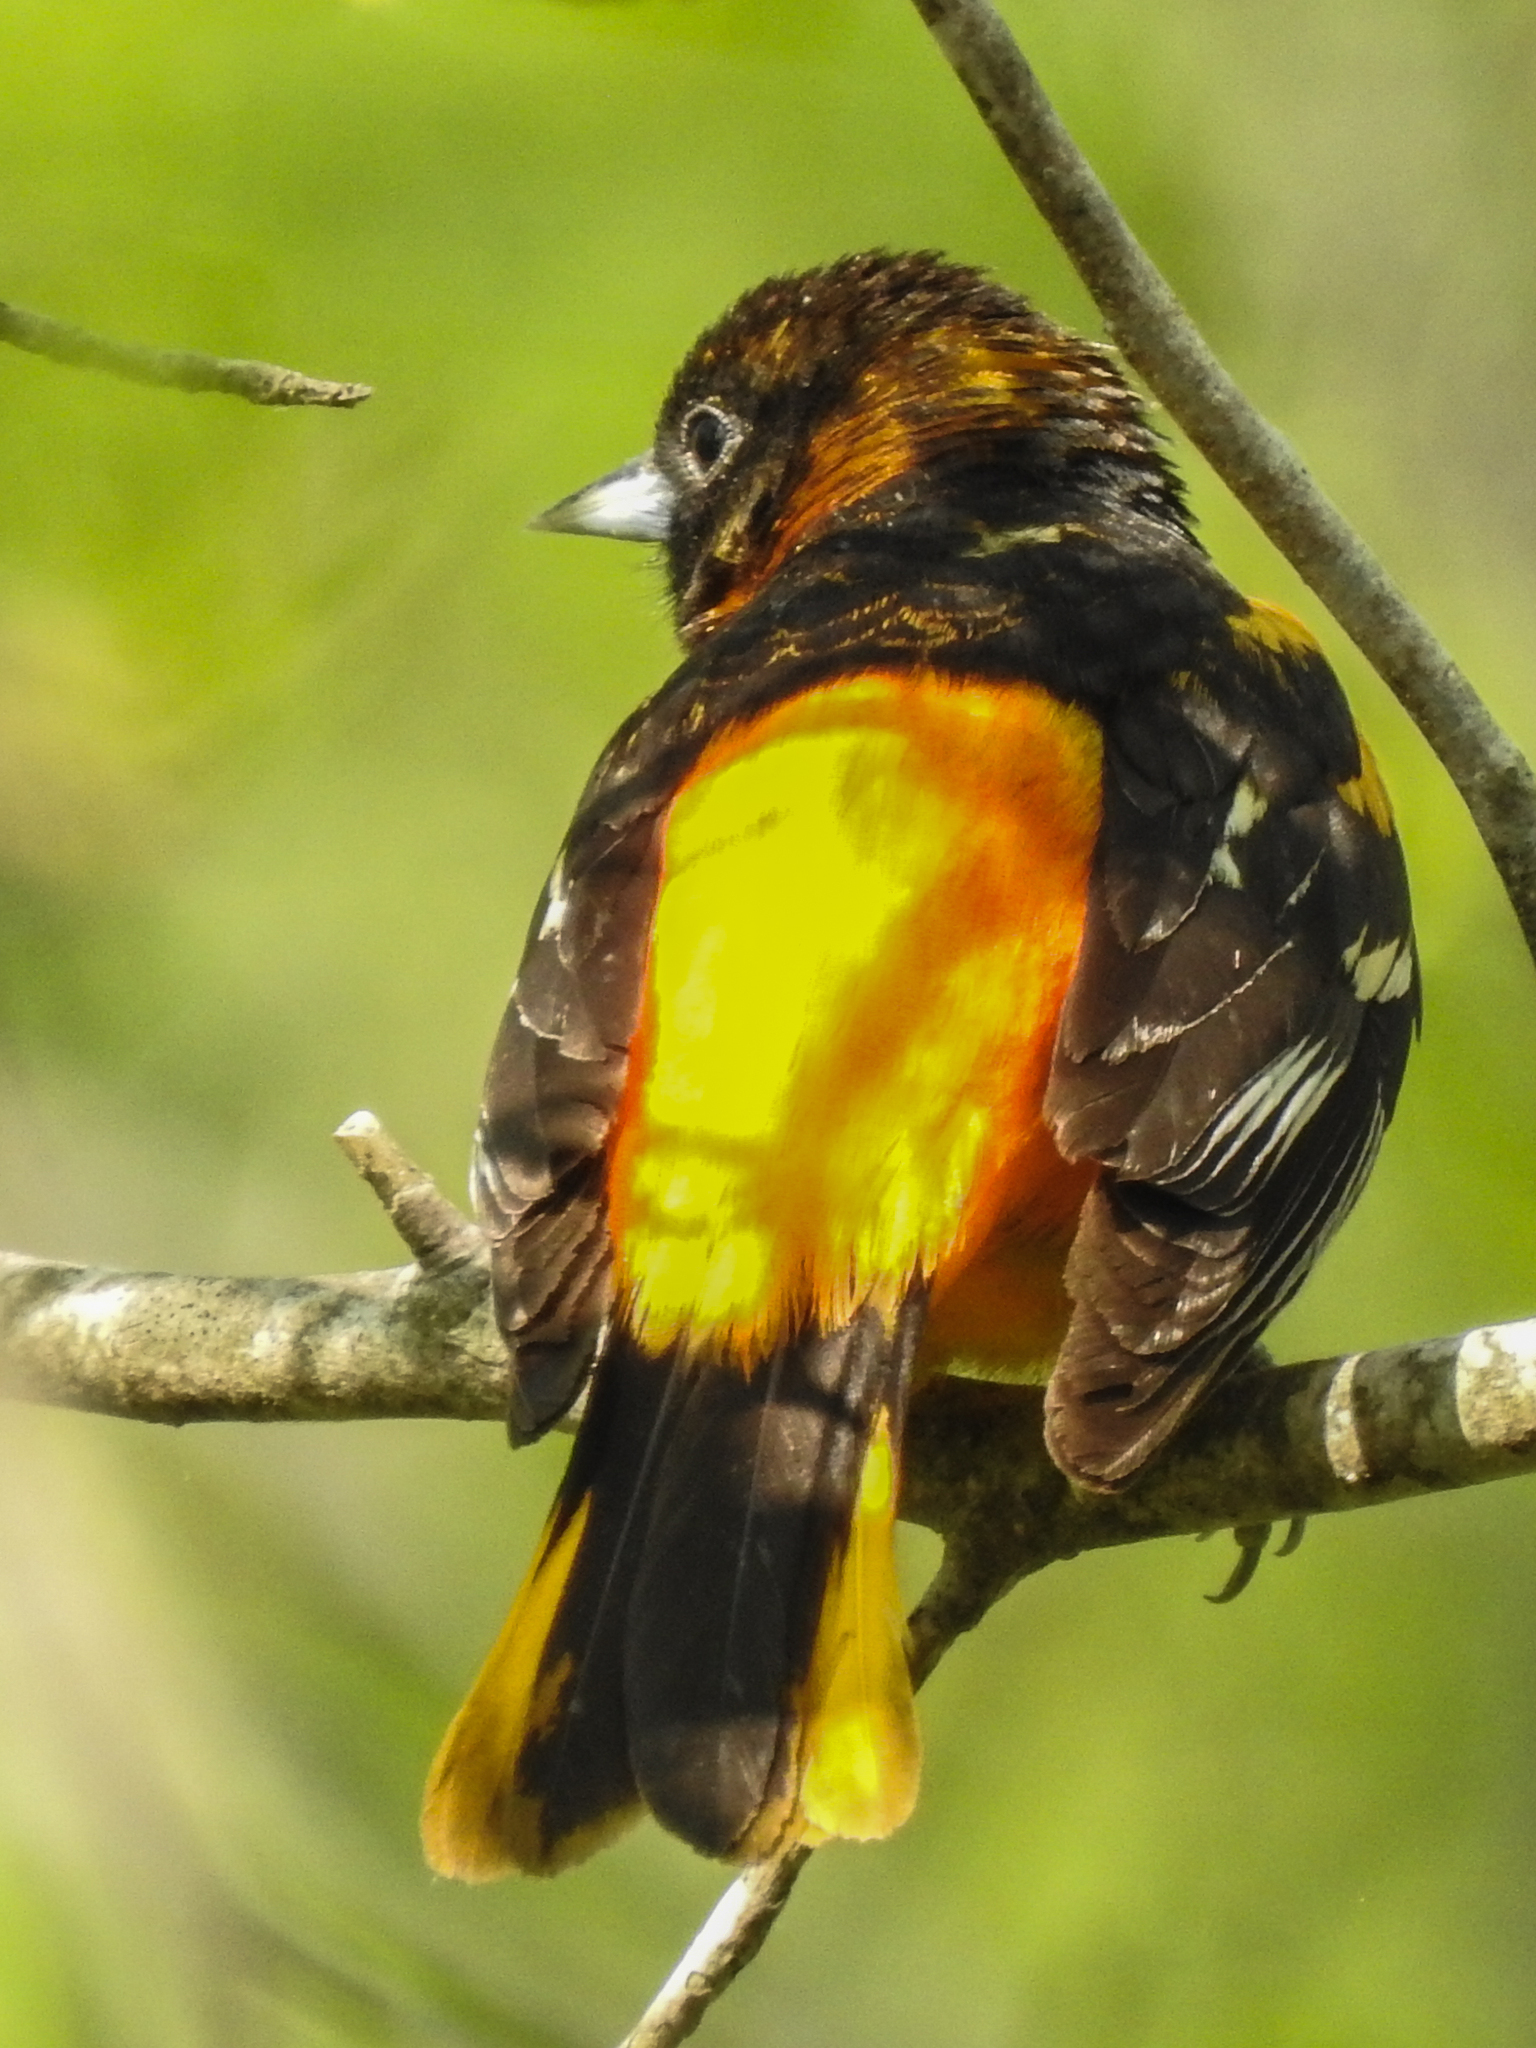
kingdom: Animalia
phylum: Chordata
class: Aves
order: Passeriformes
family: Icteridae
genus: Icterus
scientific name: Icterus galbula
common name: Baltimore oriole
